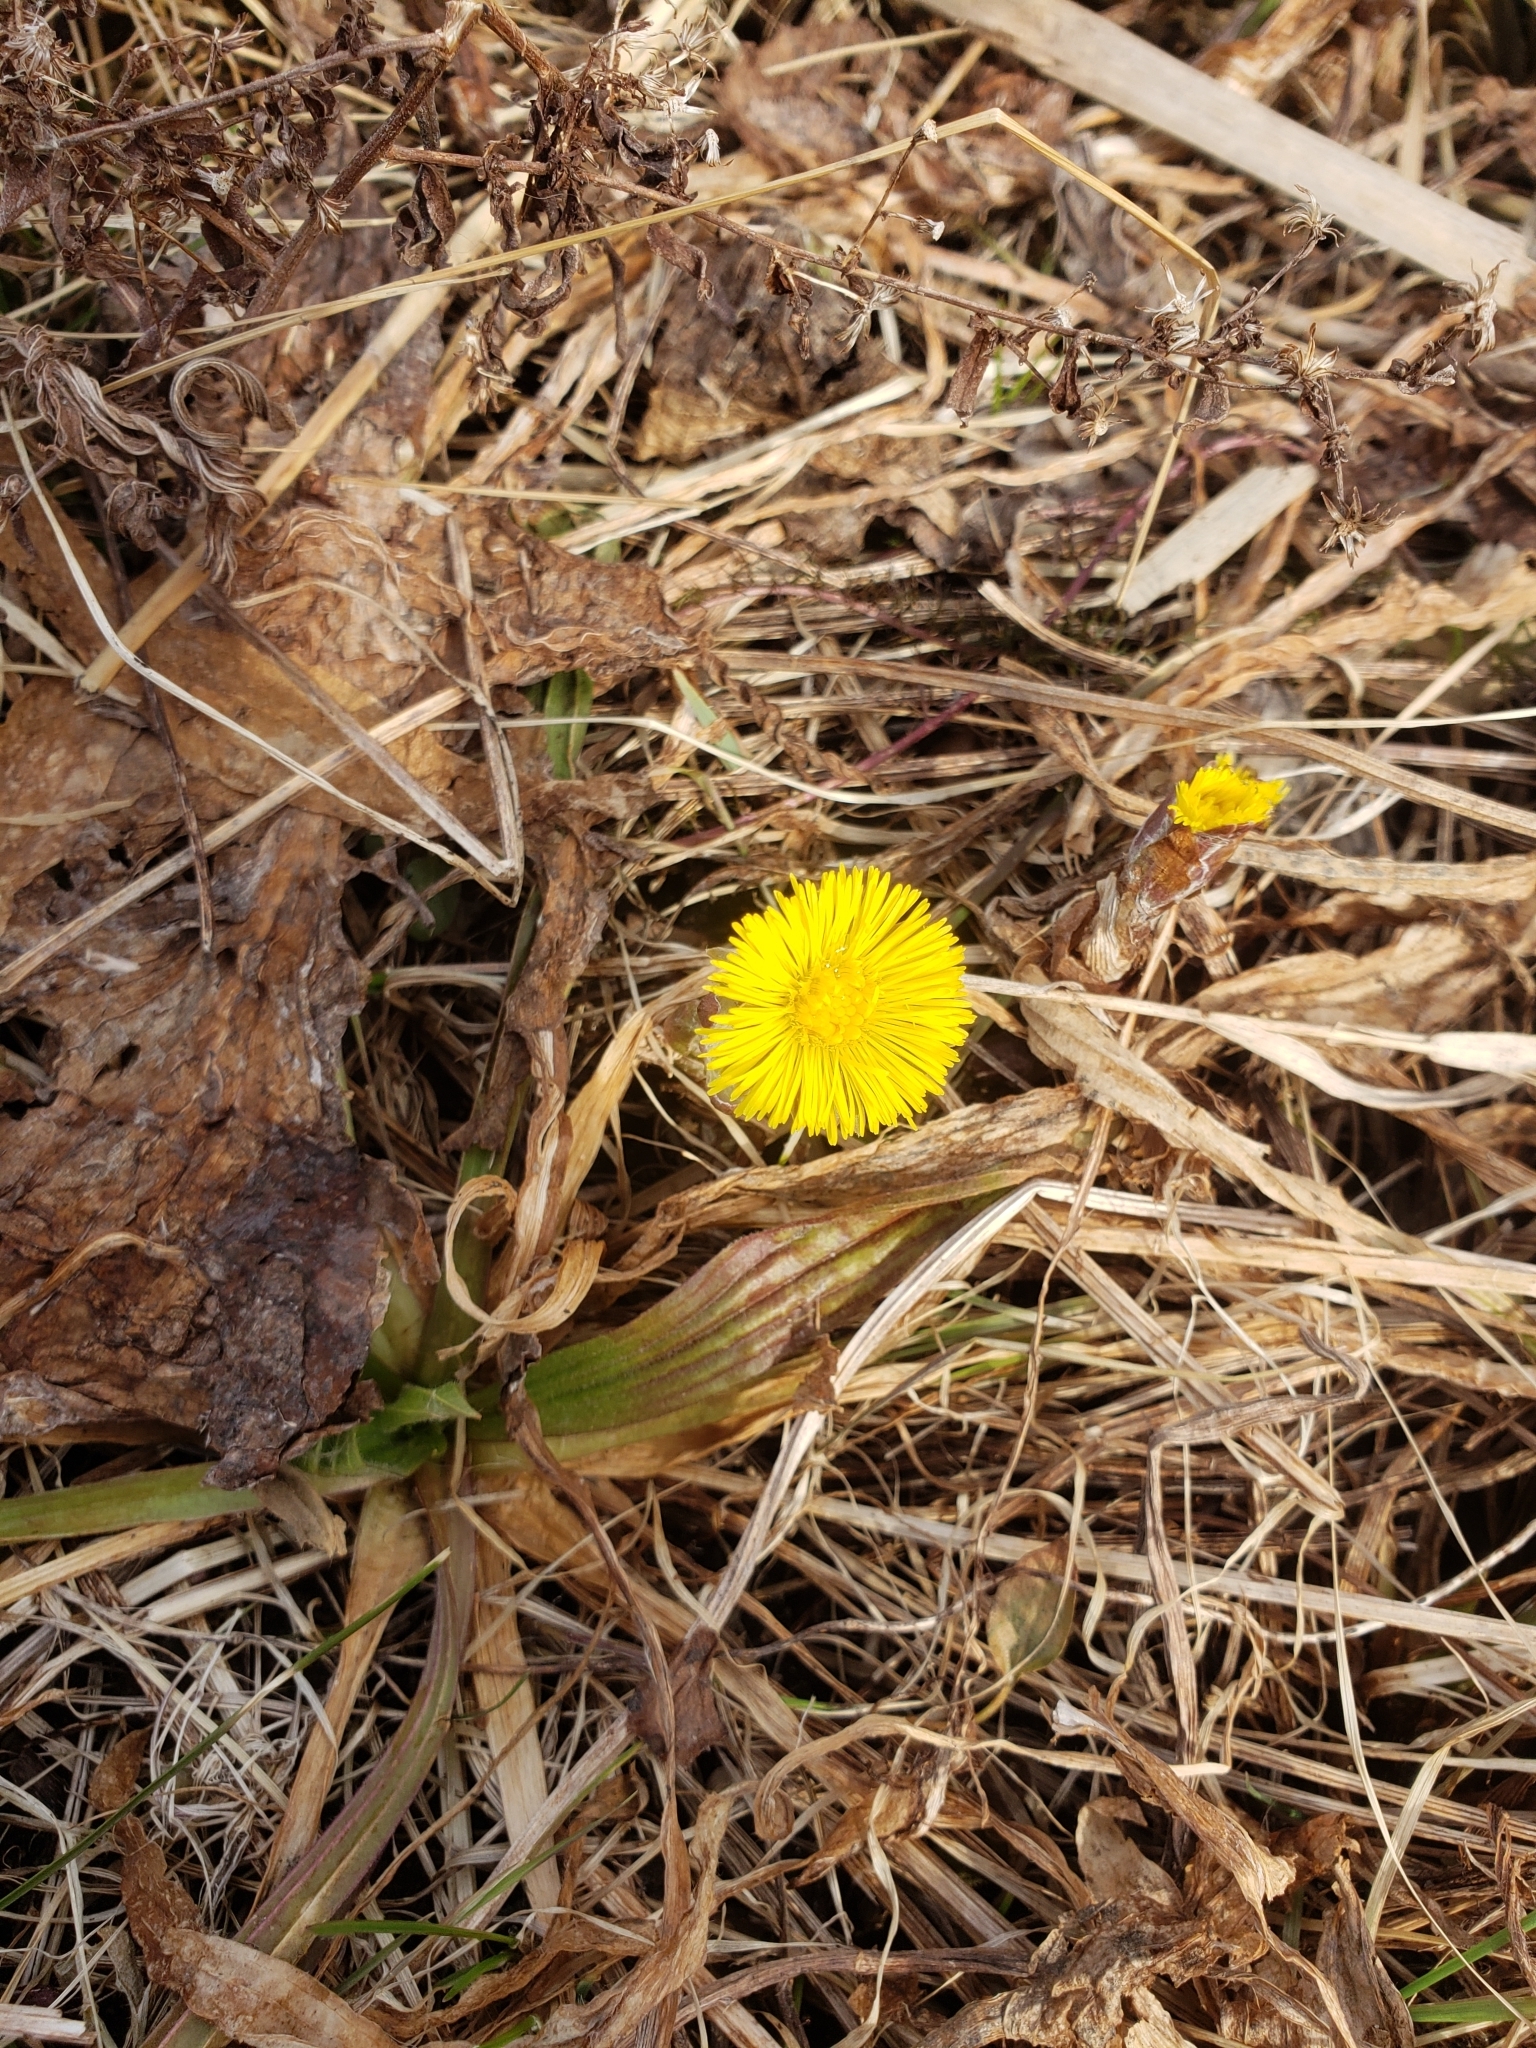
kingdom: Plantae
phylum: Tracheophyta
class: Magnoliopsida
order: Asterales
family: Asteraceae
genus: Tussilago
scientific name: Tussilago farfara
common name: Coltsfoot
